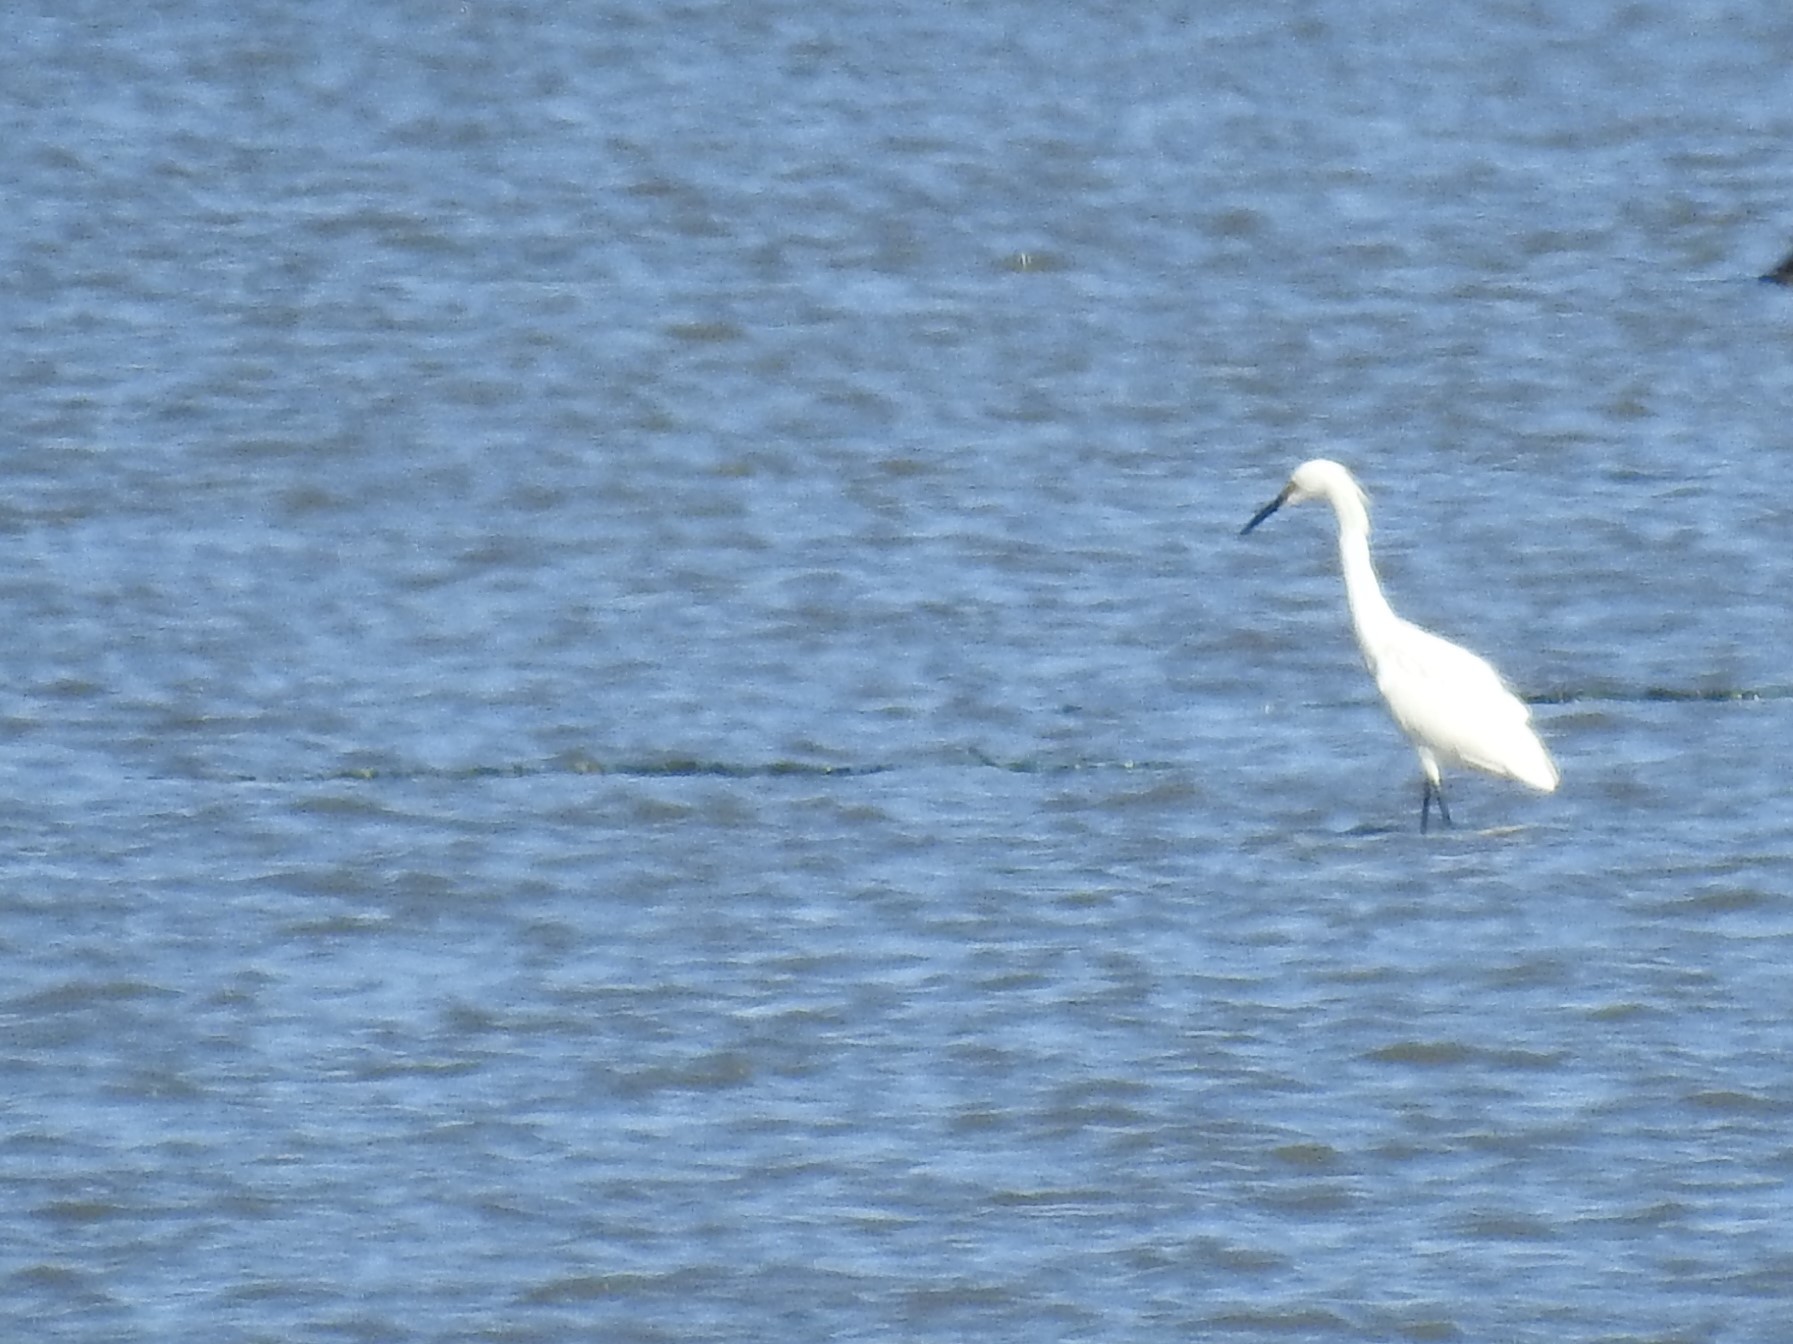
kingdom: Animalia
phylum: Chordata
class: Aves
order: Pelecaniformes
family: Ardeidae
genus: Egretta
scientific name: Egretta thula
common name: Snowy egret
